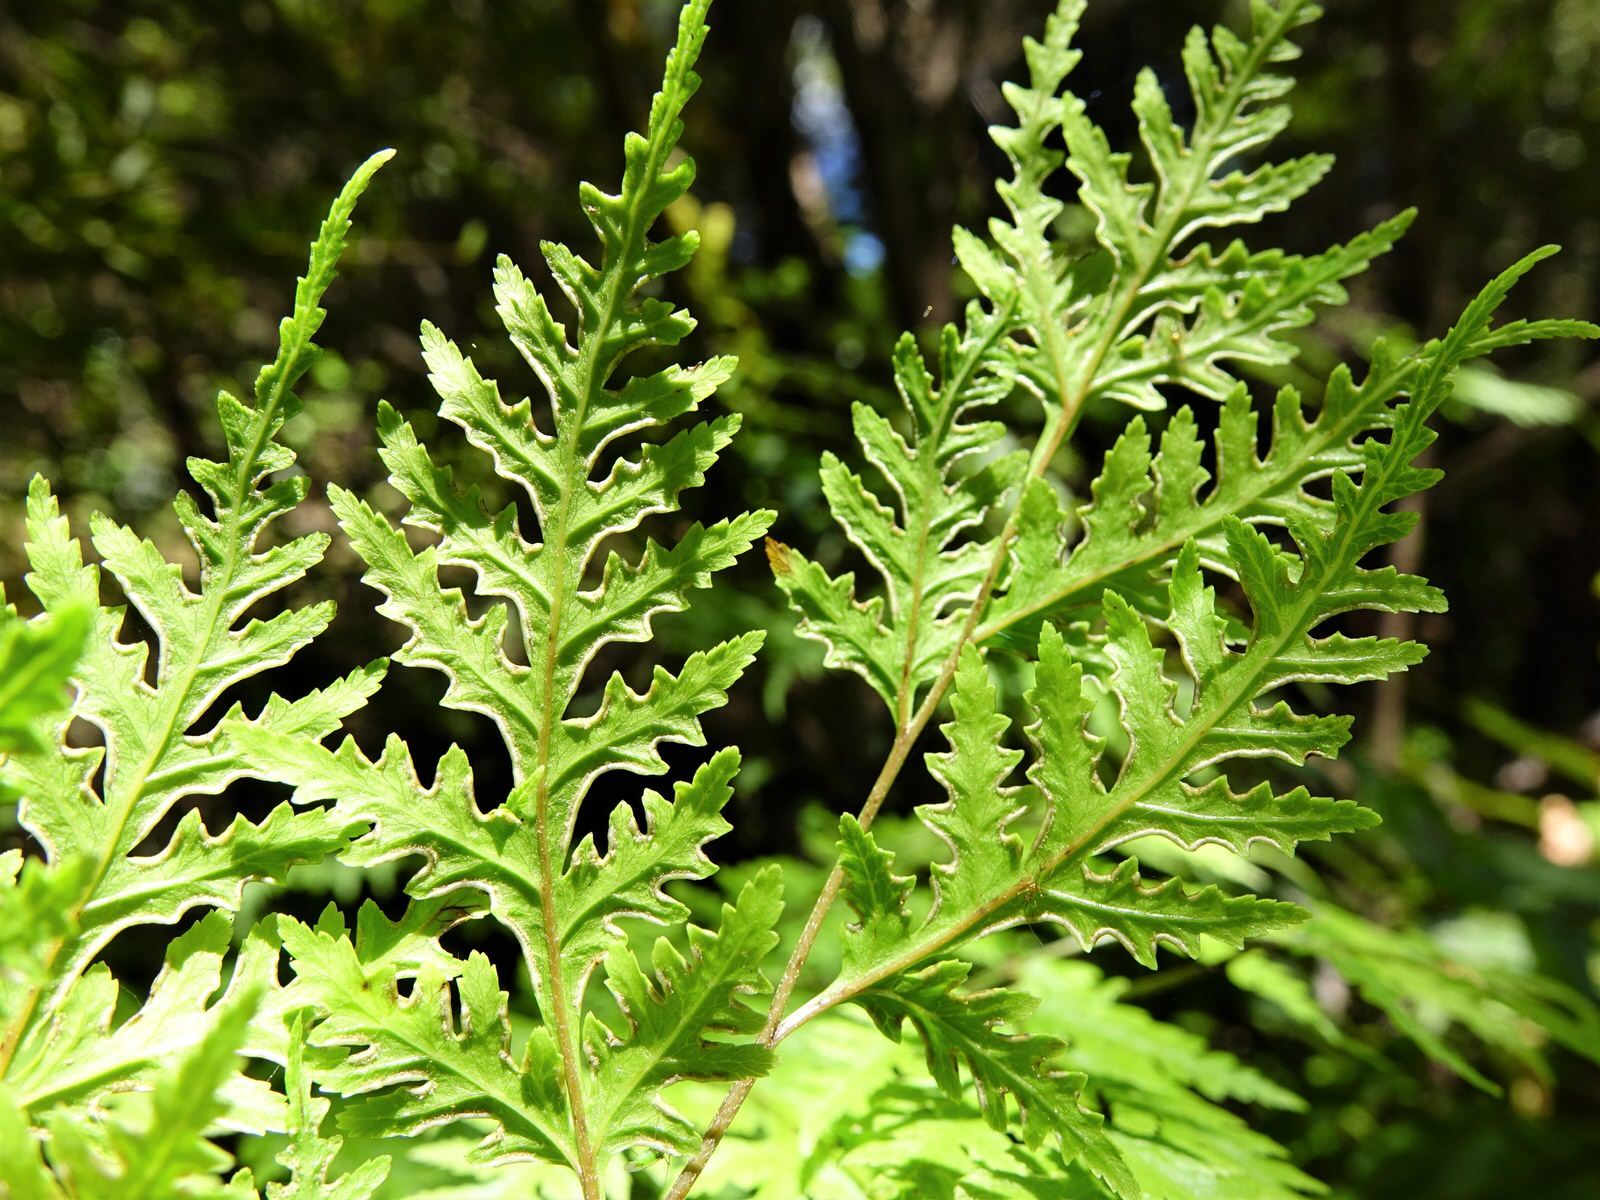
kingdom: Plantae
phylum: Tracheophyta
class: Polypodiopsida
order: Polypodiales
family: Pteridaceae
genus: Pteris
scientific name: Pteris macilenta
